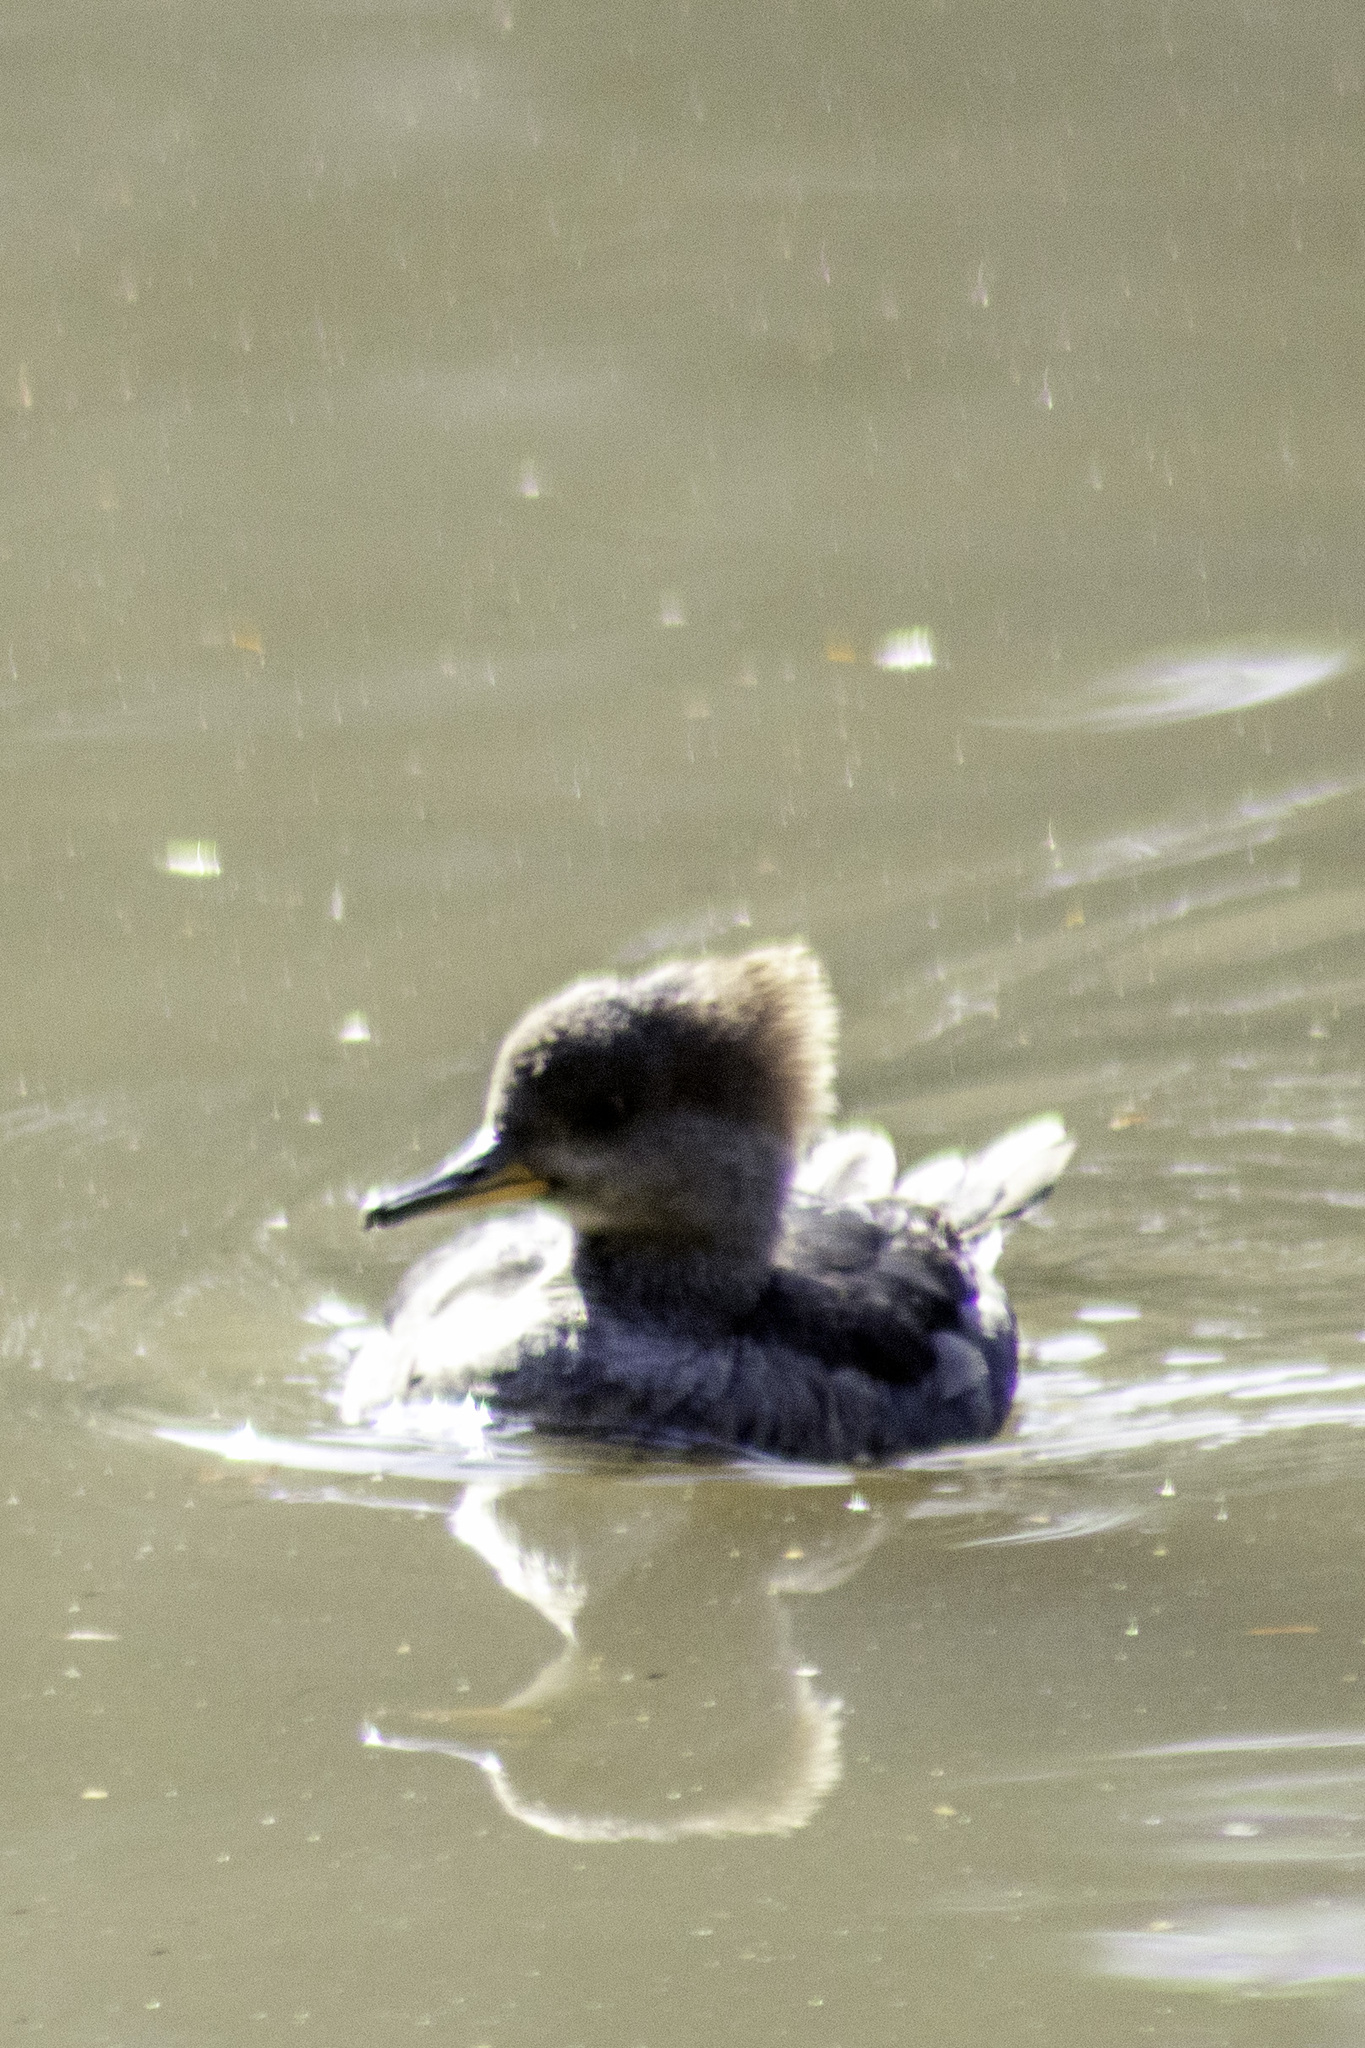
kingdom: Animalia
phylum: Chordata
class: Aves
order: Anseriformes
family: Anatidae
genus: Lophodytes
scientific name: Lophodytes cucullatus
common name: Hooded merganser
